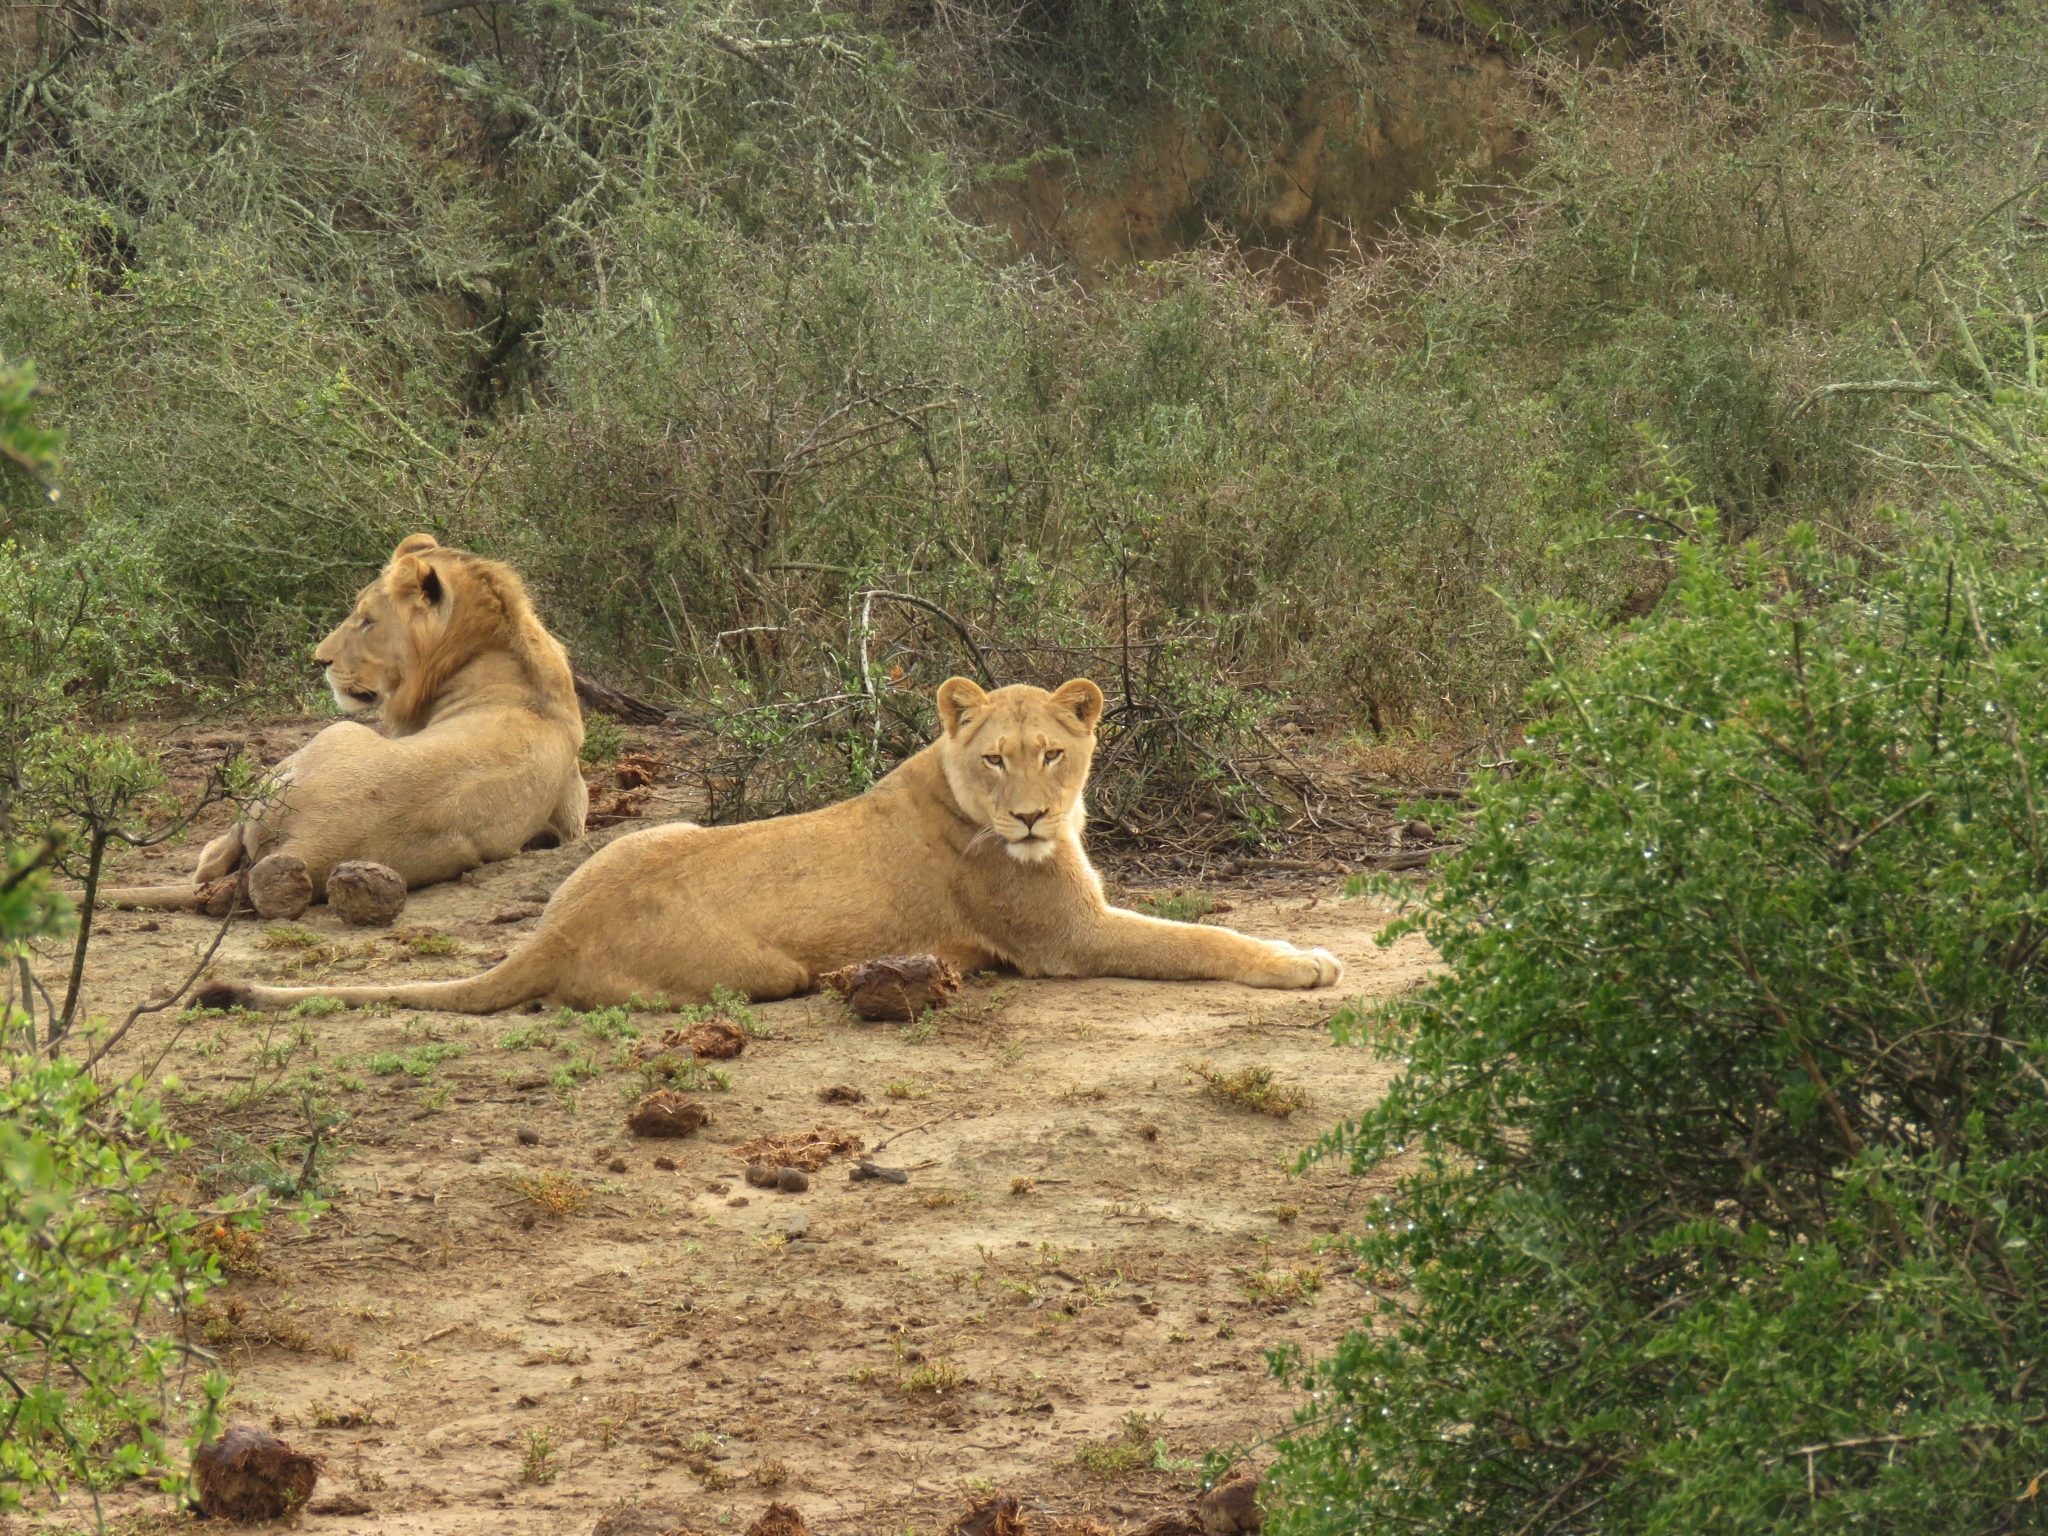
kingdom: Animalia
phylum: Chordata
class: Mammalia
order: Carnivora
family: Felidae
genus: Panthera
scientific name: Panthera leo
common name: Lion
